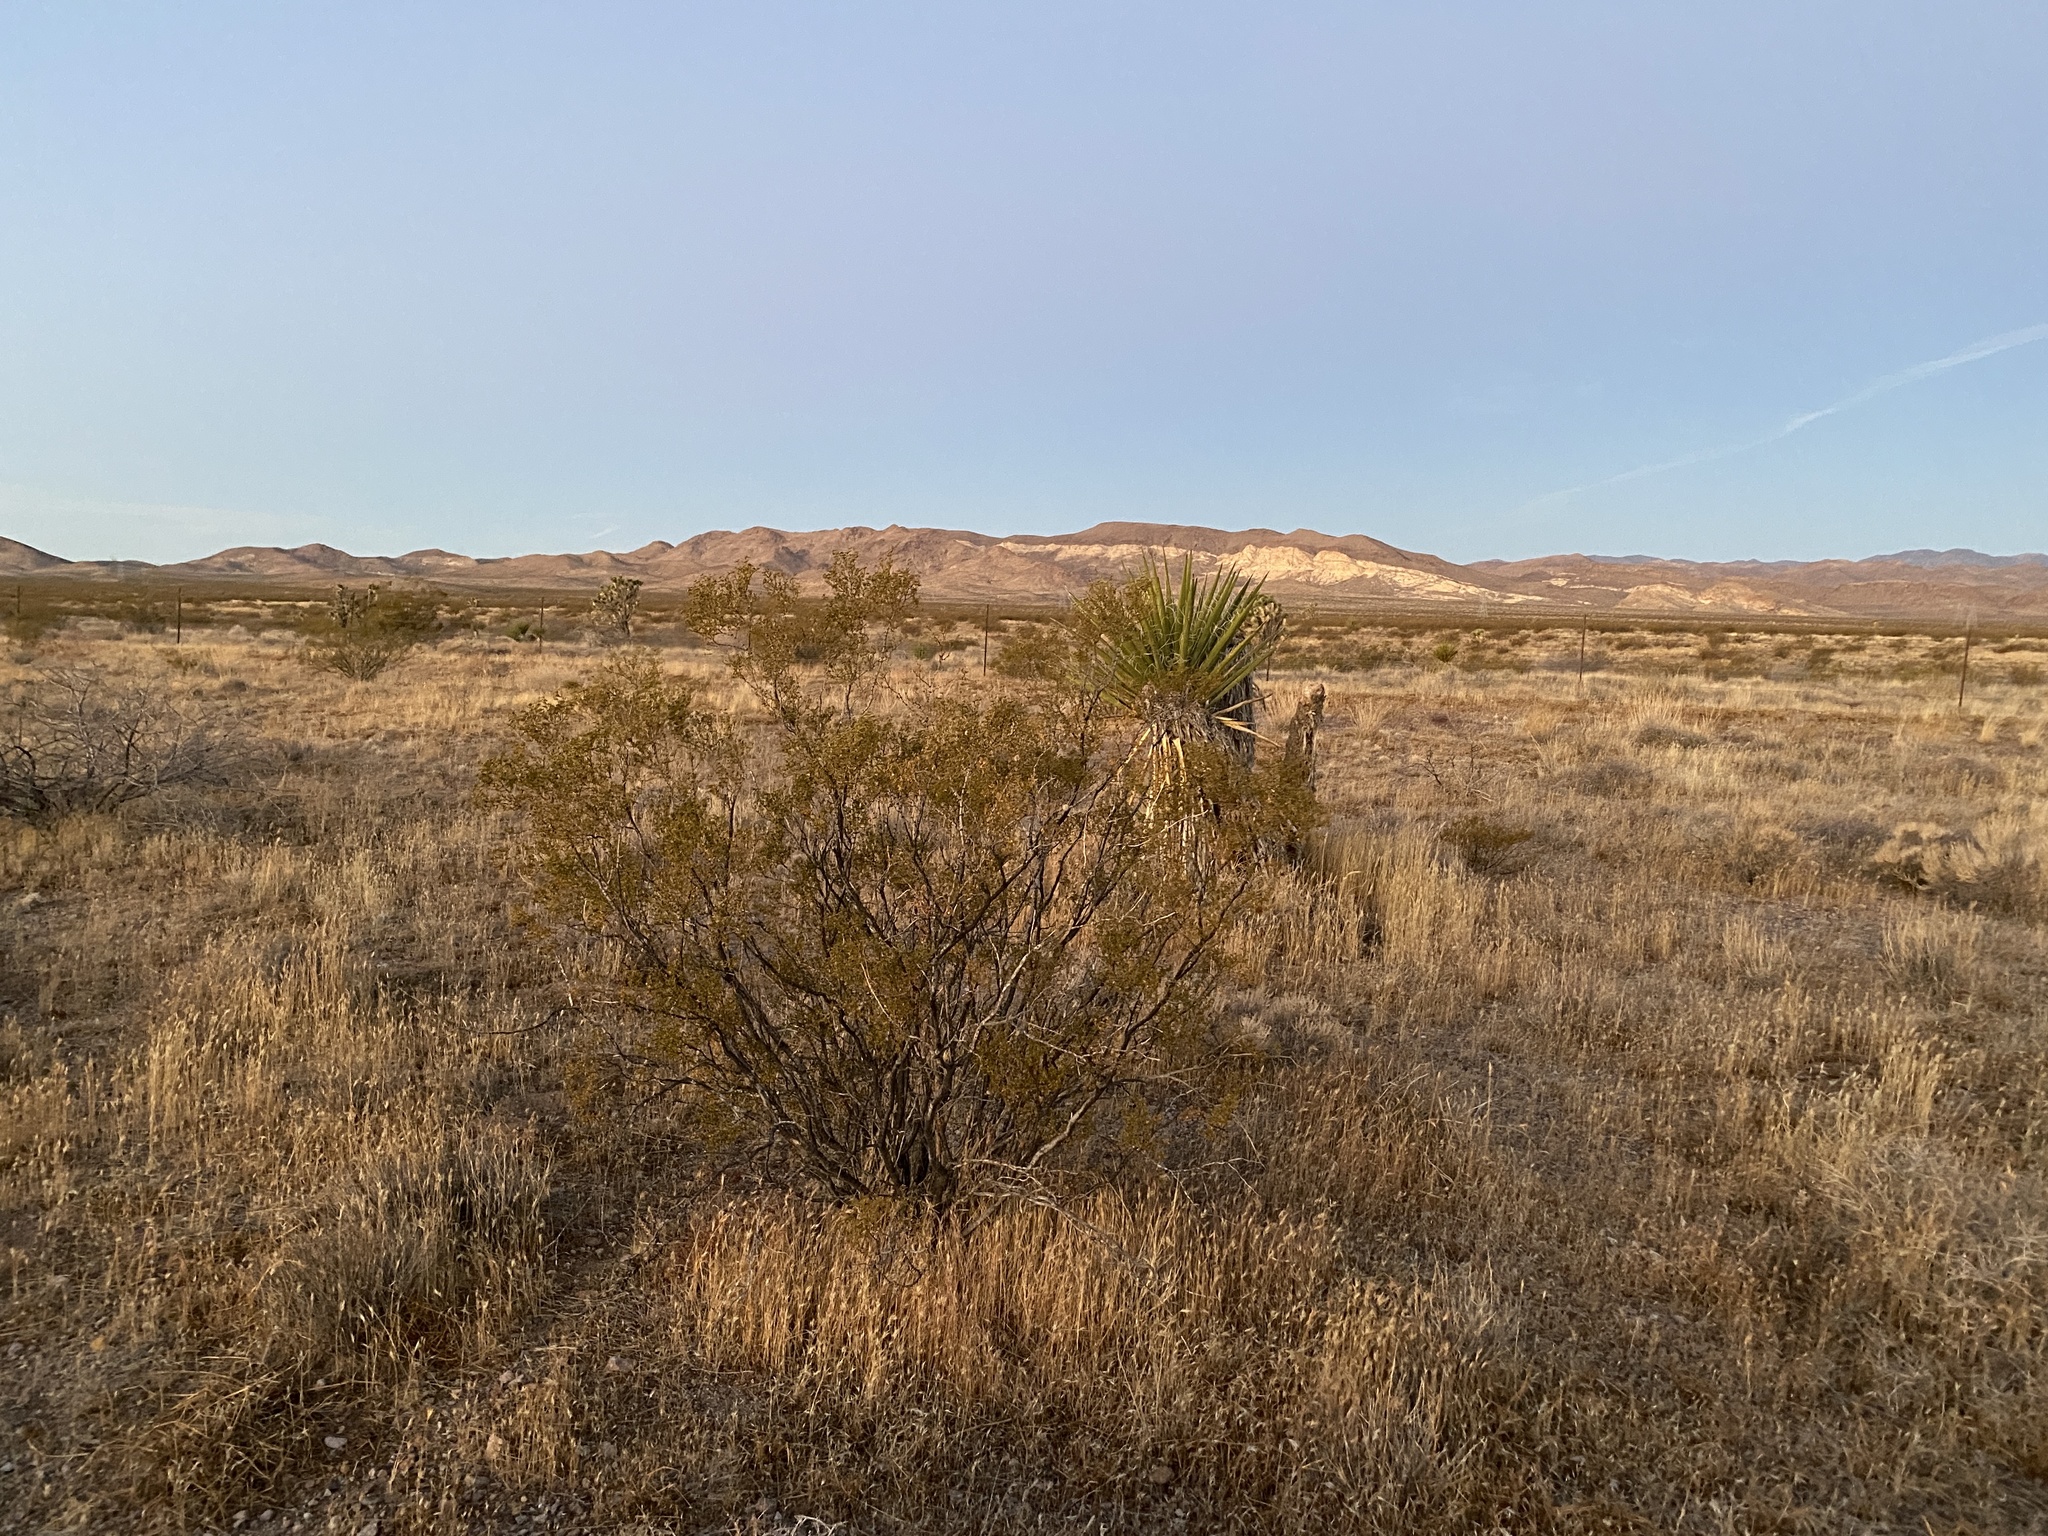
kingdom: Plantae
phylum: Tracheophyta
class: Magnoliopsida
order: Zygophyllales
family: Zygophyllaceae
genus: Larrea
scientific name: Larrea tridentata
